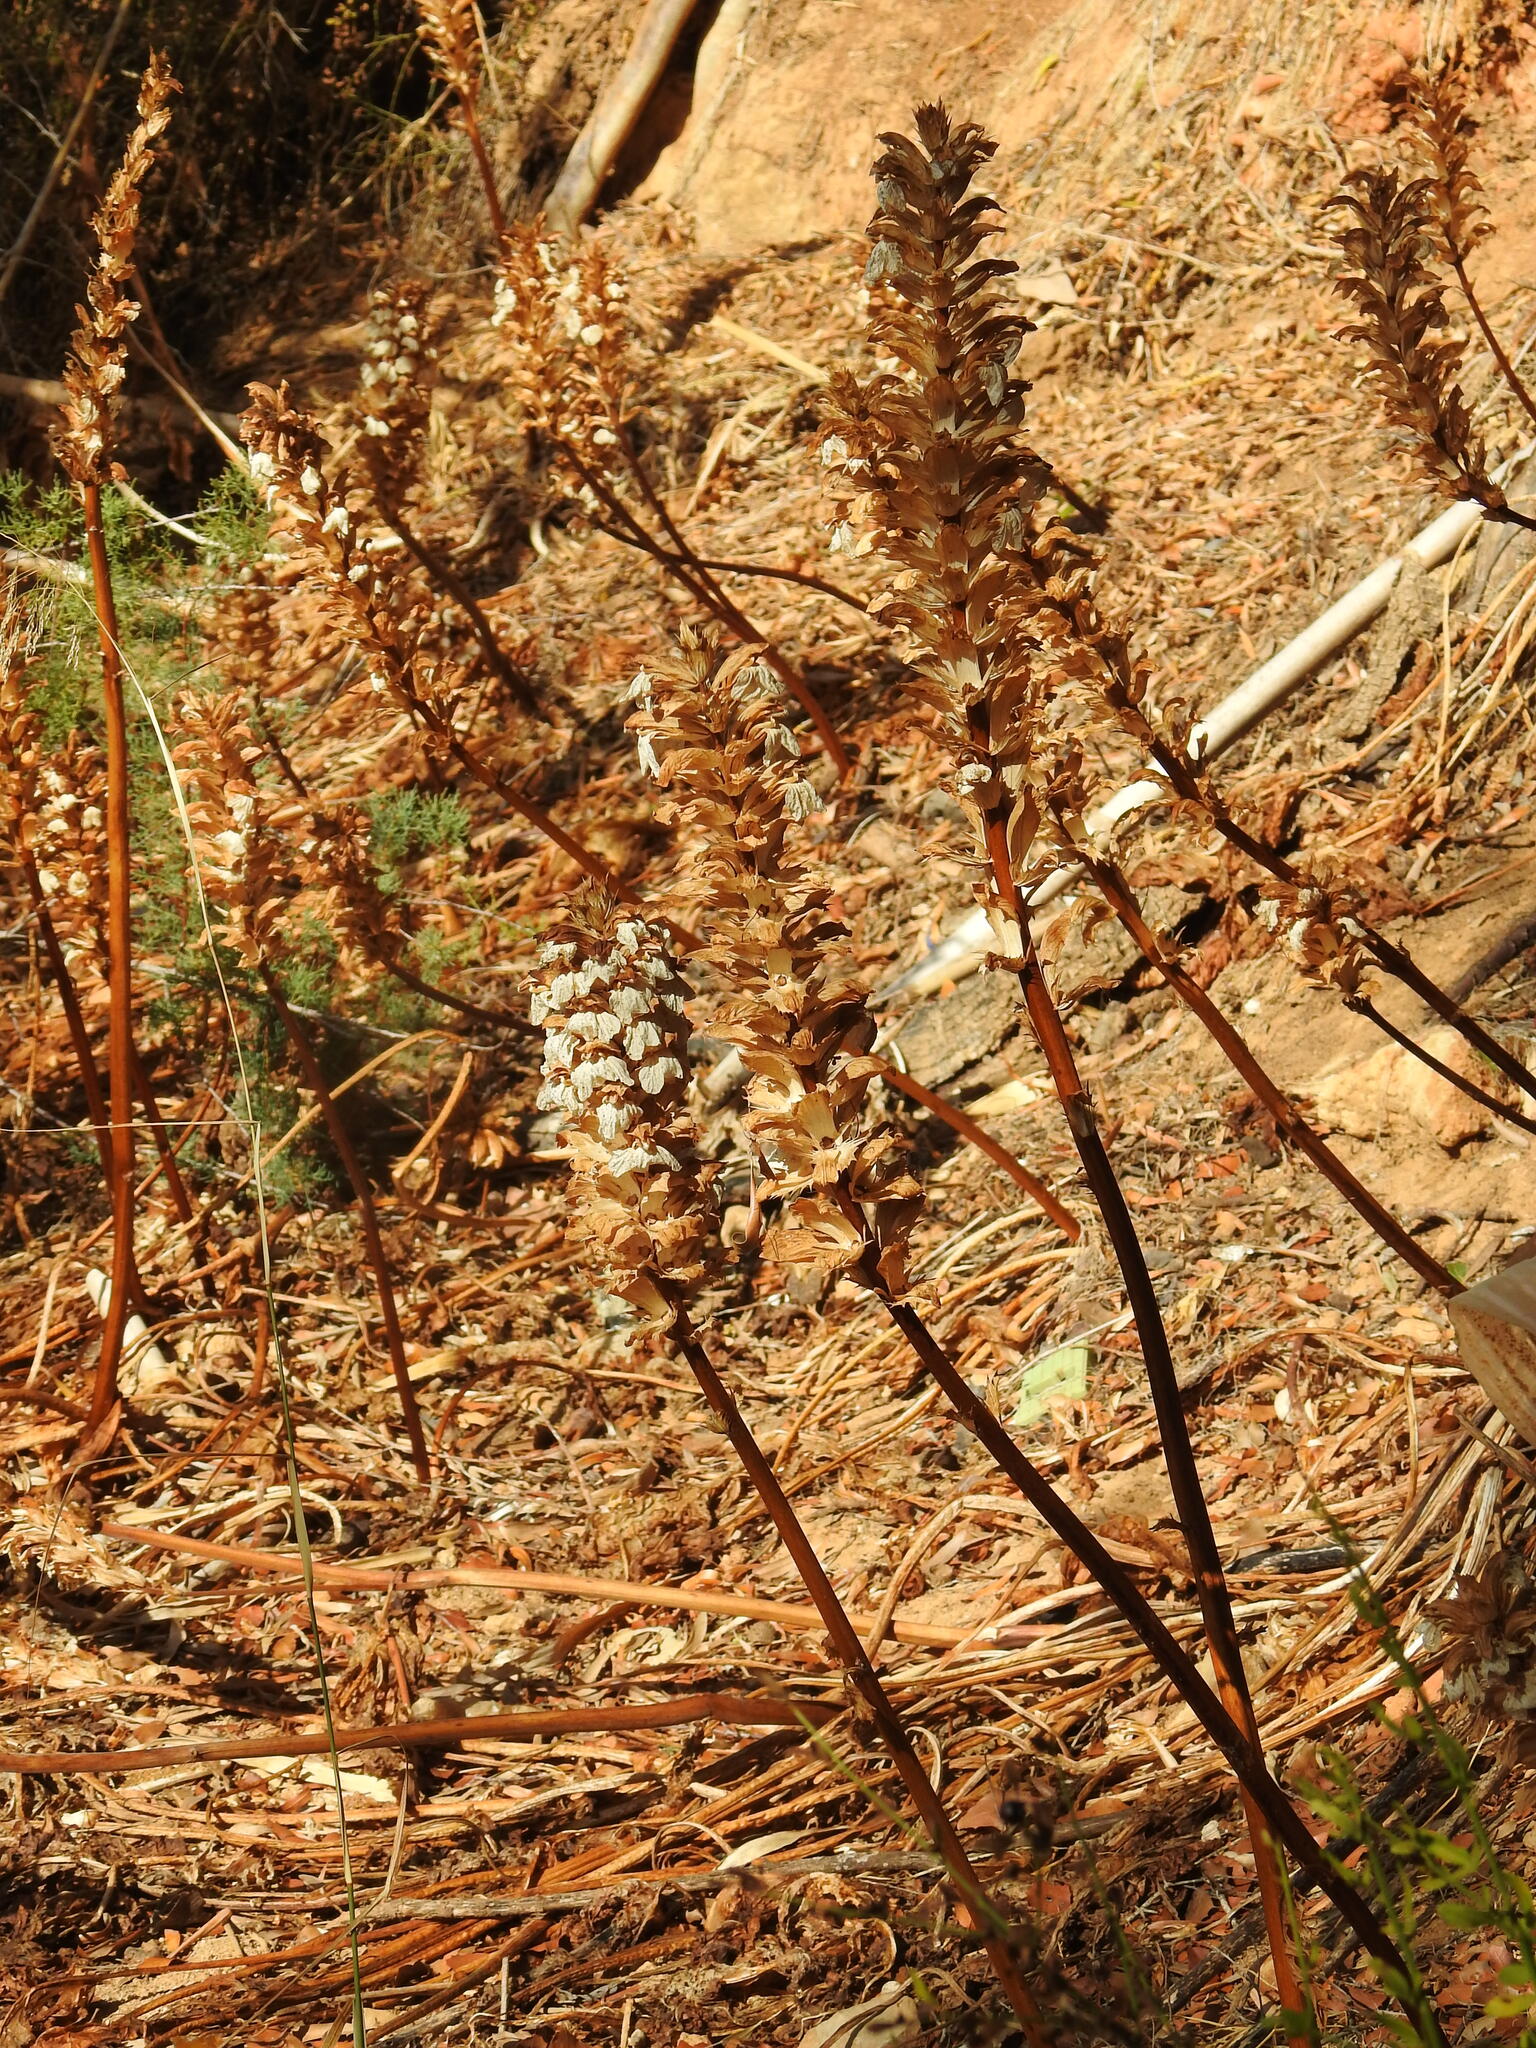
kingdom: Plantae
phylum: Tracheophyta
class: Magnoliopsida
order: Lamiales
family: Acanthaceae
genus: Acanthus
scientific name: Acanthus mollis
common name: Bear's-breech
